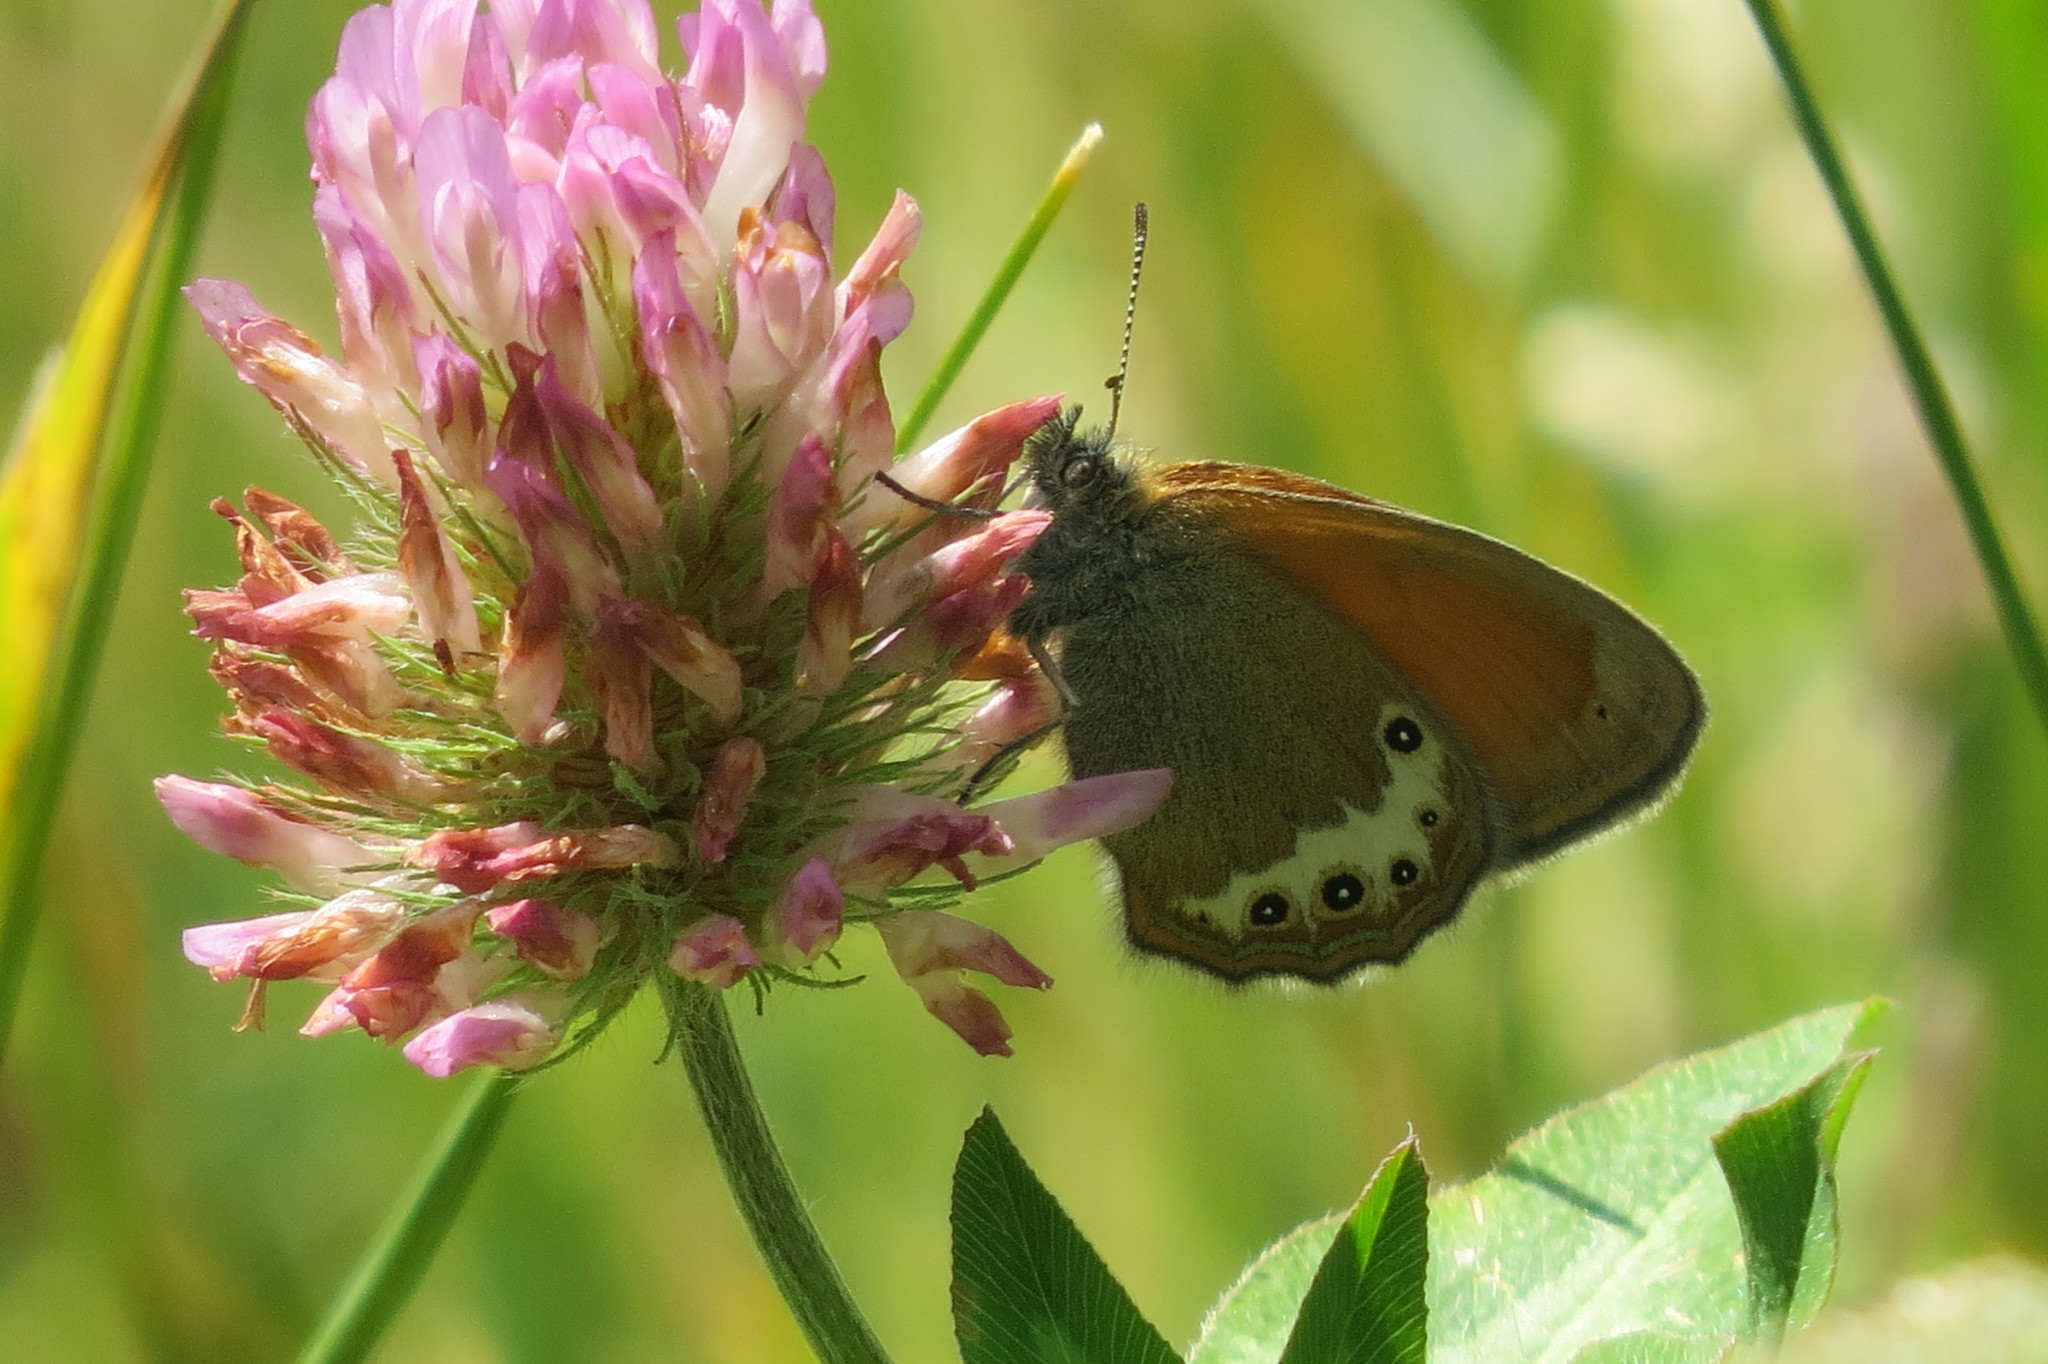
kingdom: Animalia
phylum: Arthropoda
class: Insecta
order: Lepidoptera
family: Nymphalidae
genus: Coenonympha
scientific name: Coenonympha
